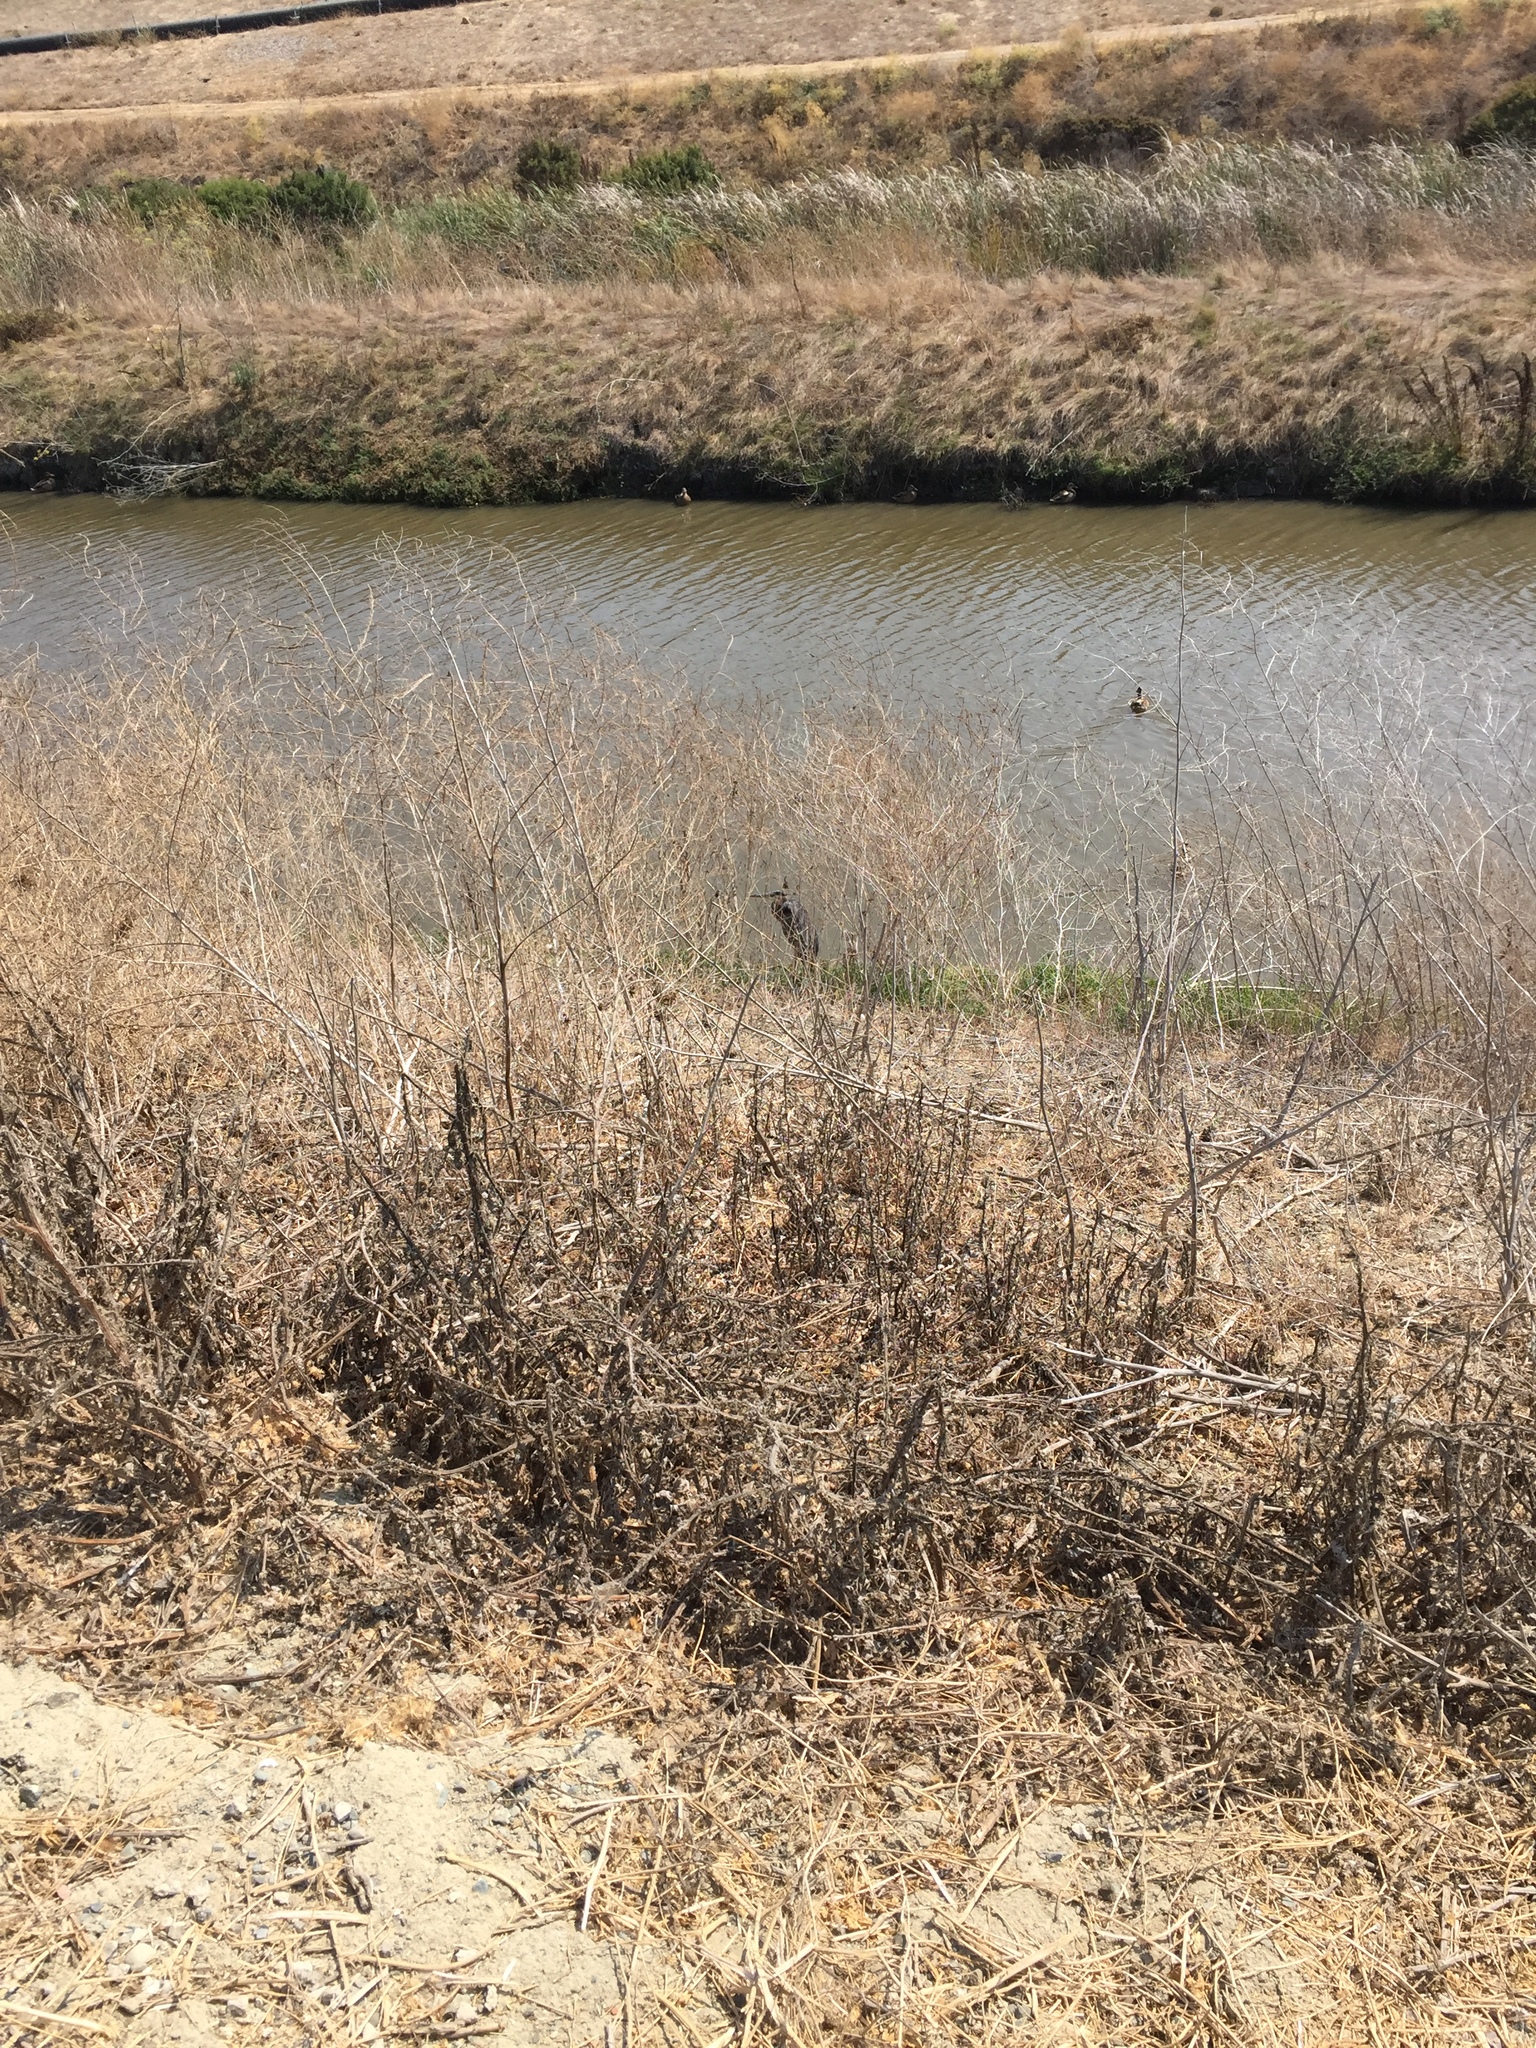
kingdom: Animalia
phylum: Chordata
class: Aves
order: Pelecaniformes
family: Ardeidae
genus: Ardea
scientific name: Ardea herodias
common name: Great blue heron
